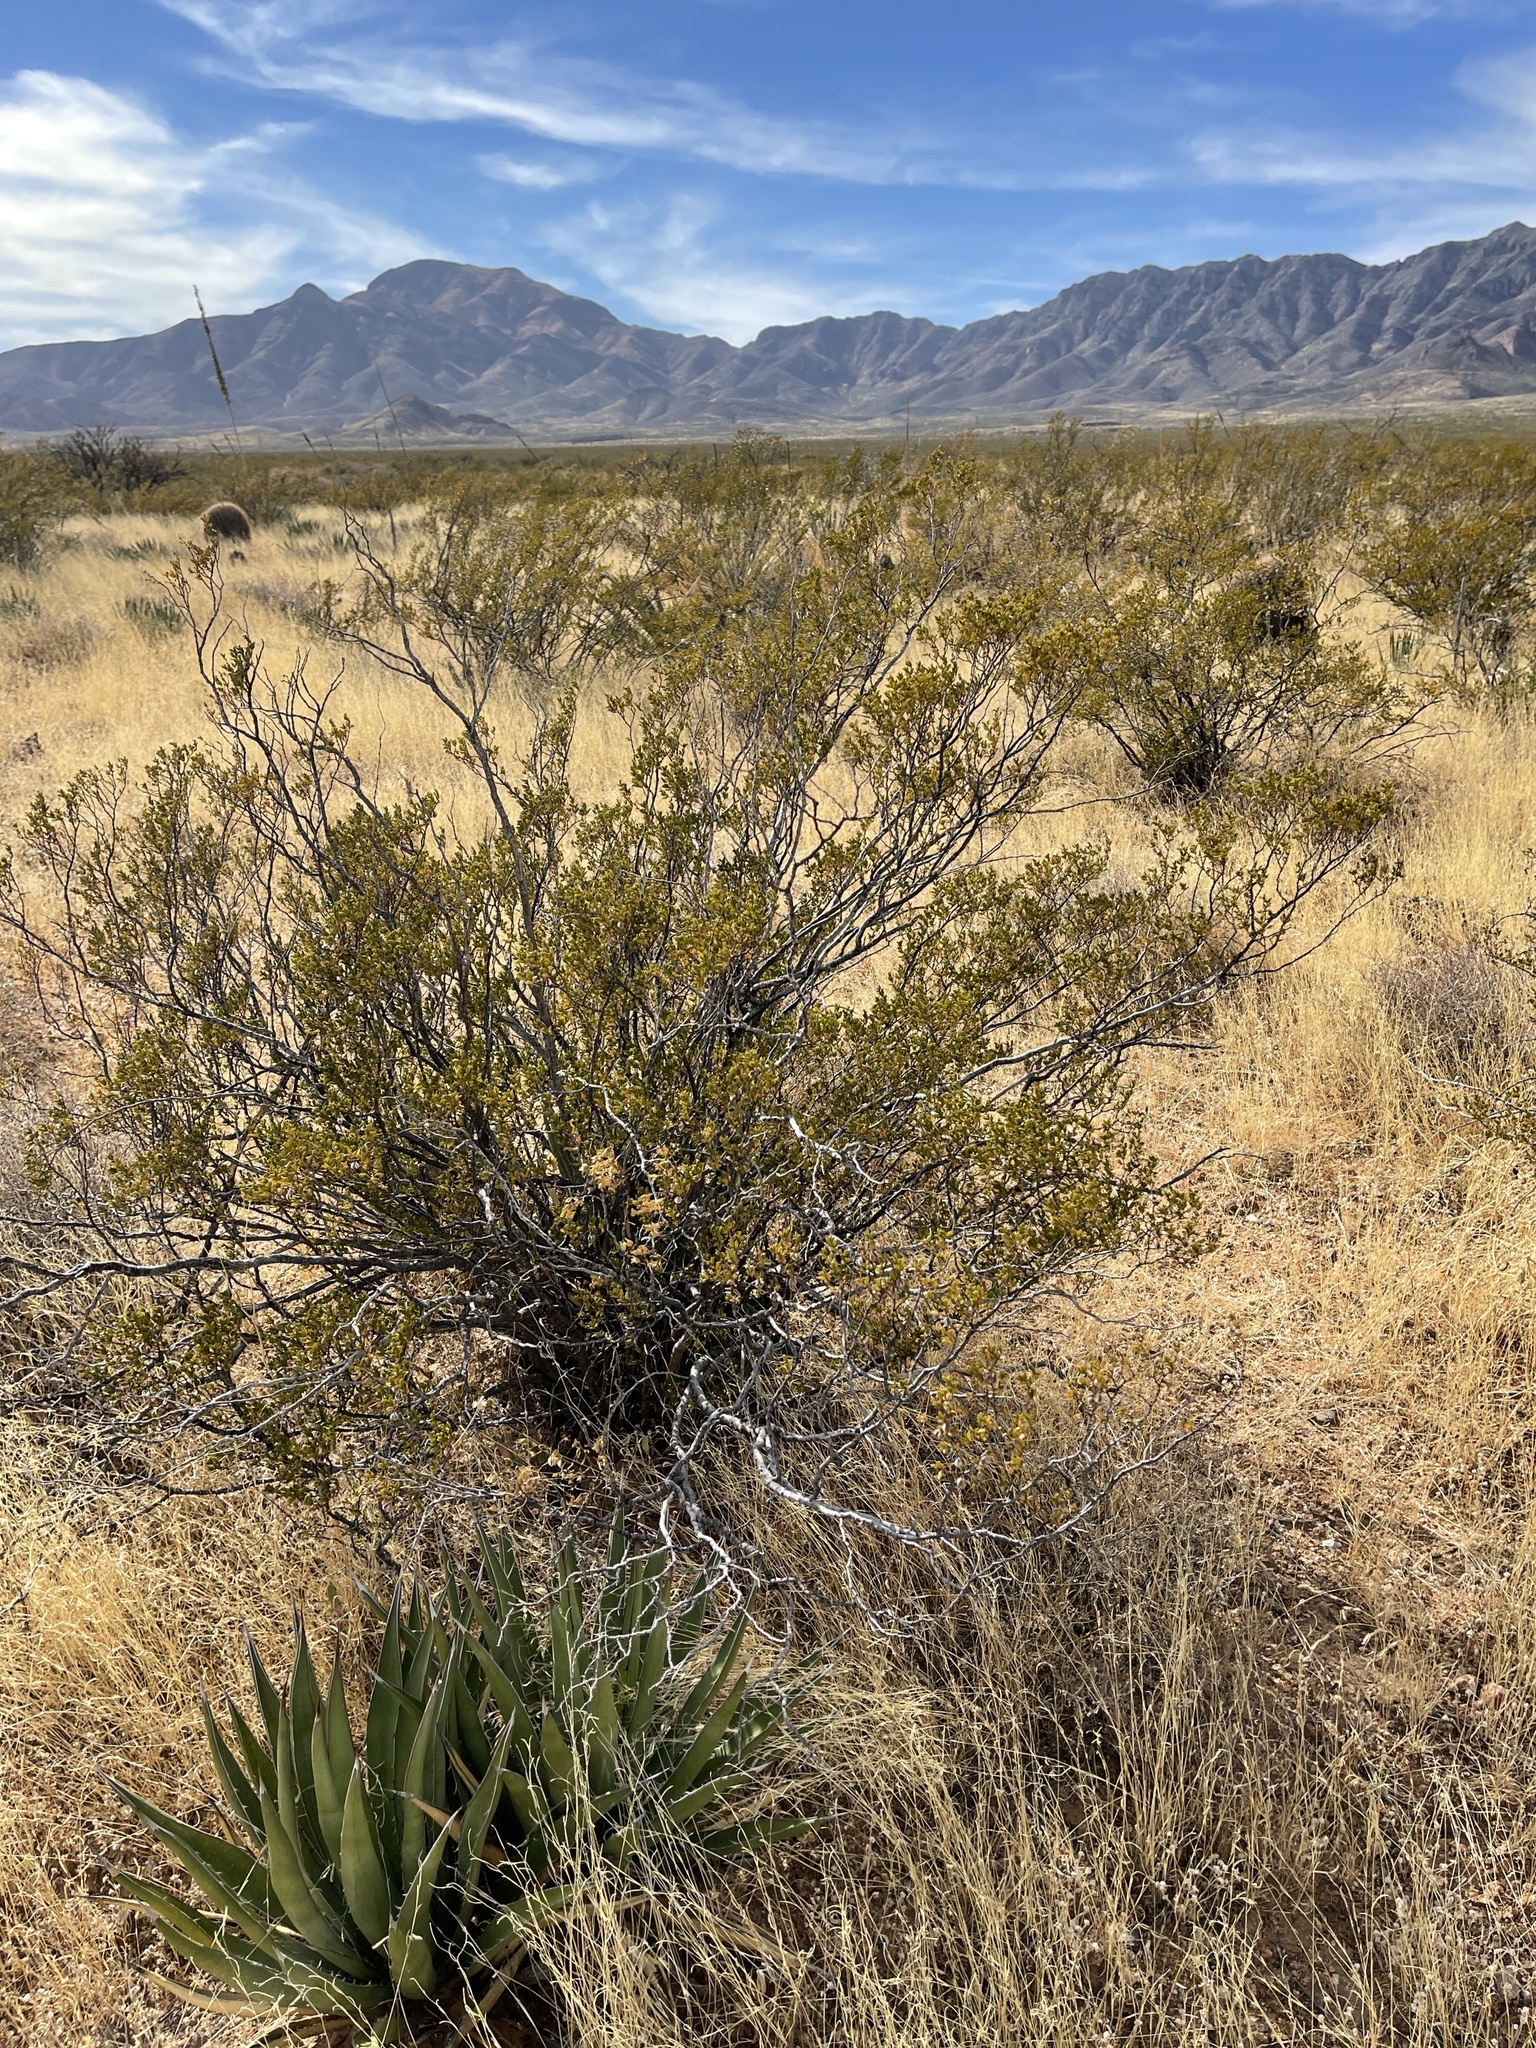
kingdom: Plantae
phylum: Tracheophyta
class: Magnoliopsida
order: Zygophyllales
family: Zygophyllaceae
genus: Larrea
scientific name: Larrea tridentata
